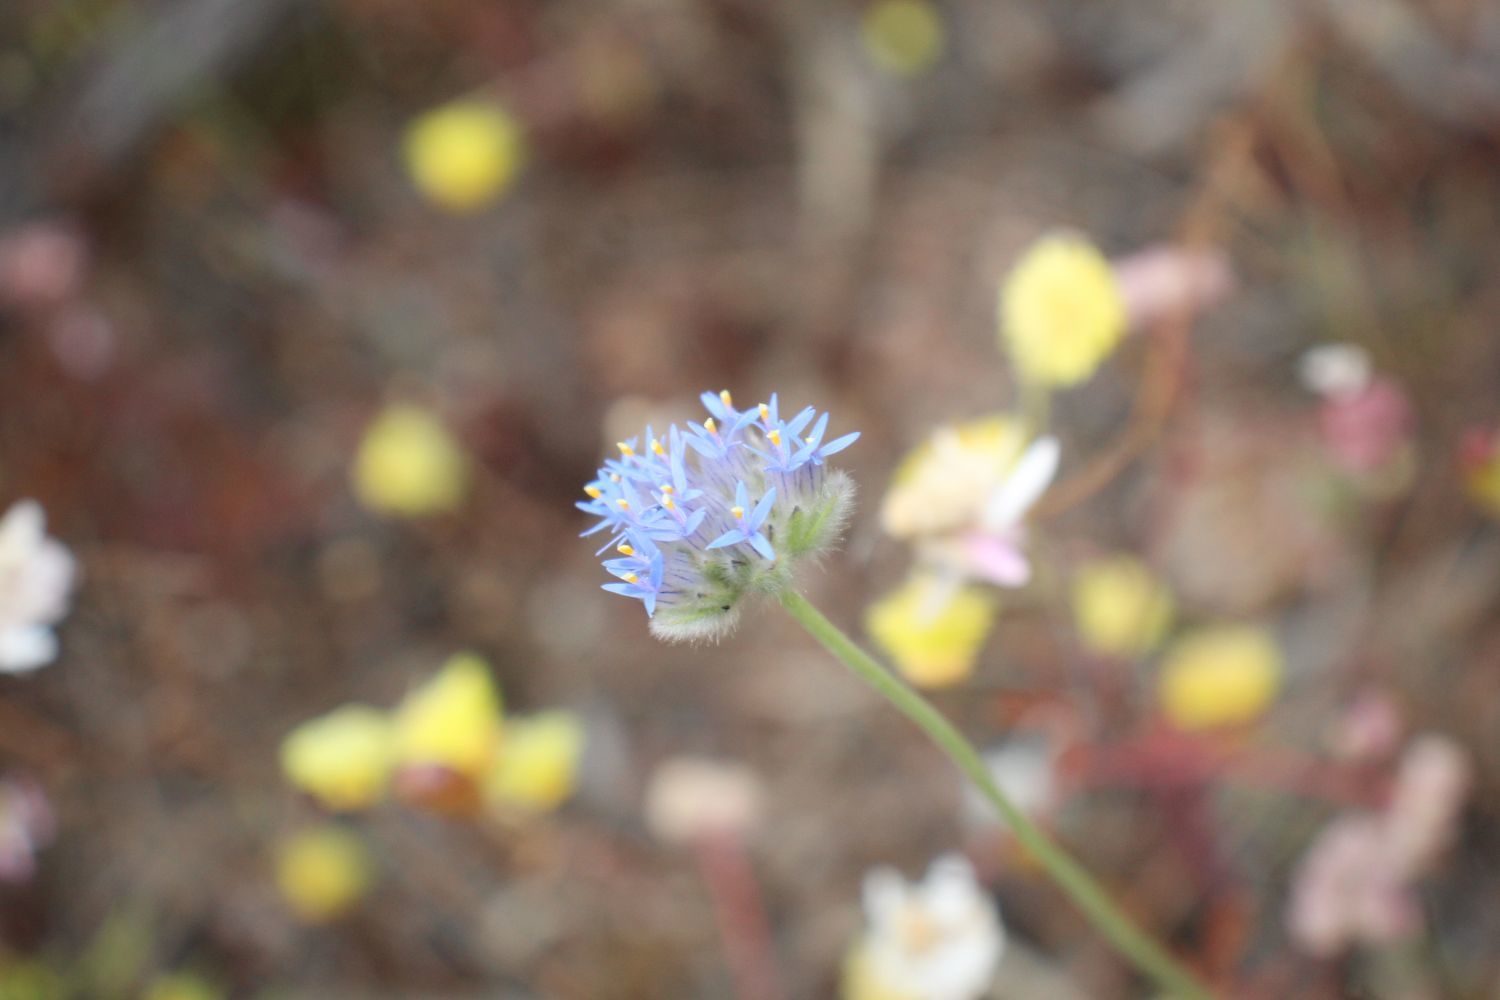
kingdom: Plantae
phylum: Tracheophyta
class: Magnoliopsida
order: Asterales
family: Goodeniaceae
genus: Brunonia
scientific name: Brunonia australis
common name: Blue pincushion
